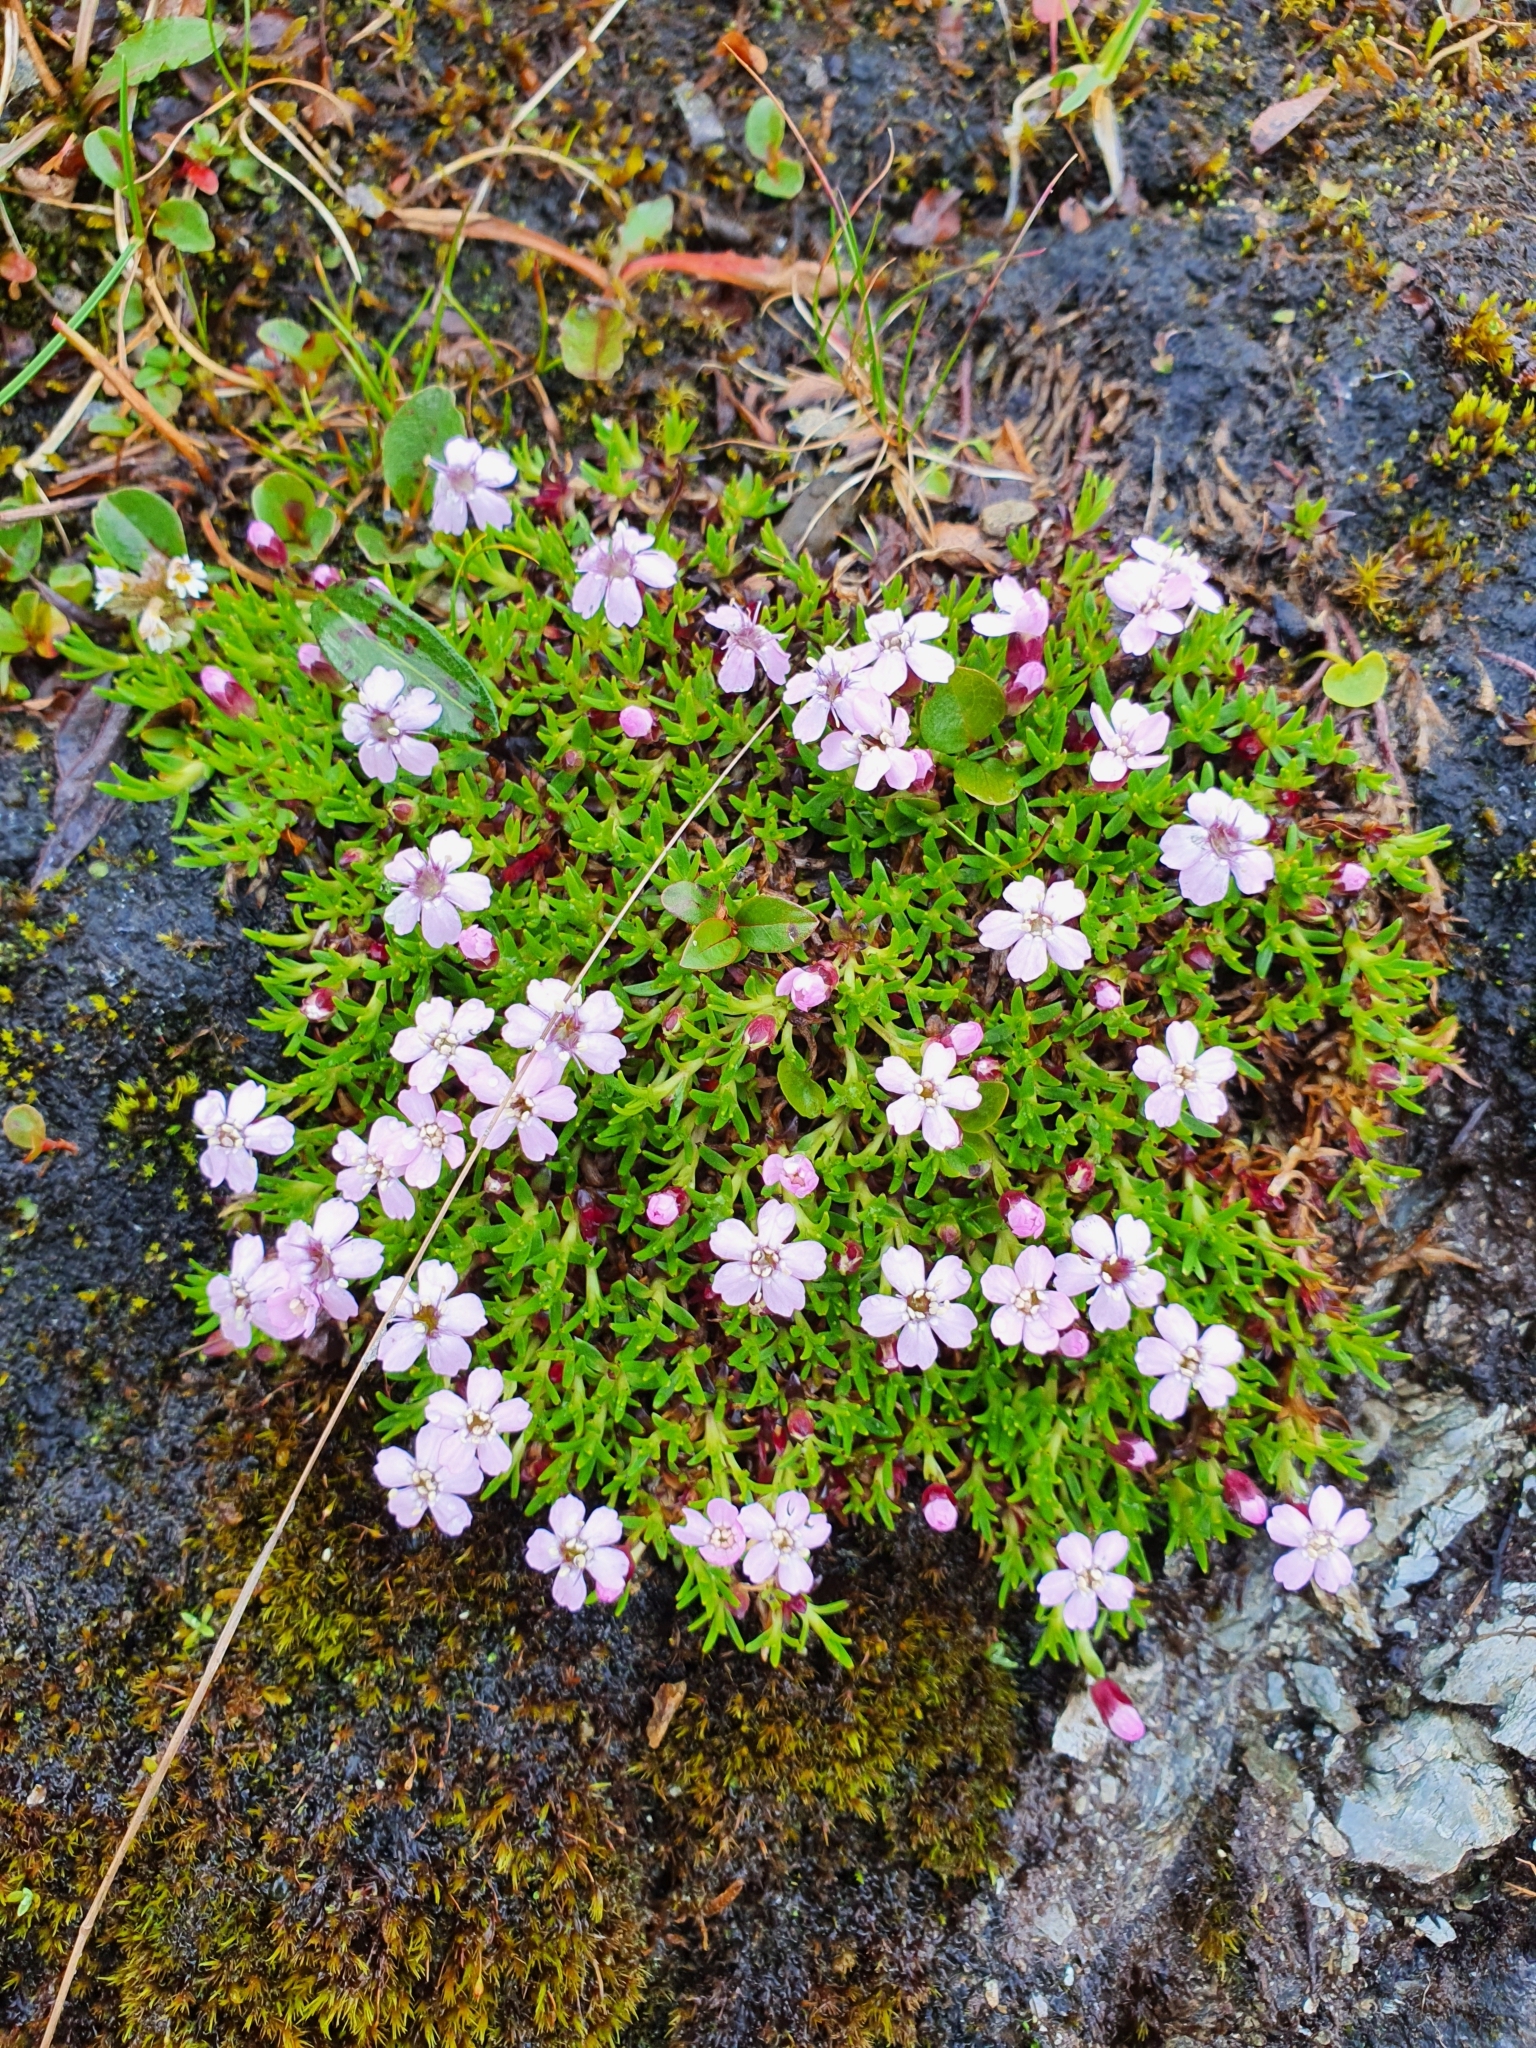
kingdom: Plantae
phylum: Tracheophyta
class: Magnoliopsida
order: Caryophyllales
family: Caryophyllaceae
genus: Silene
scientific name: Silene acaulis
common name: Moss campion
